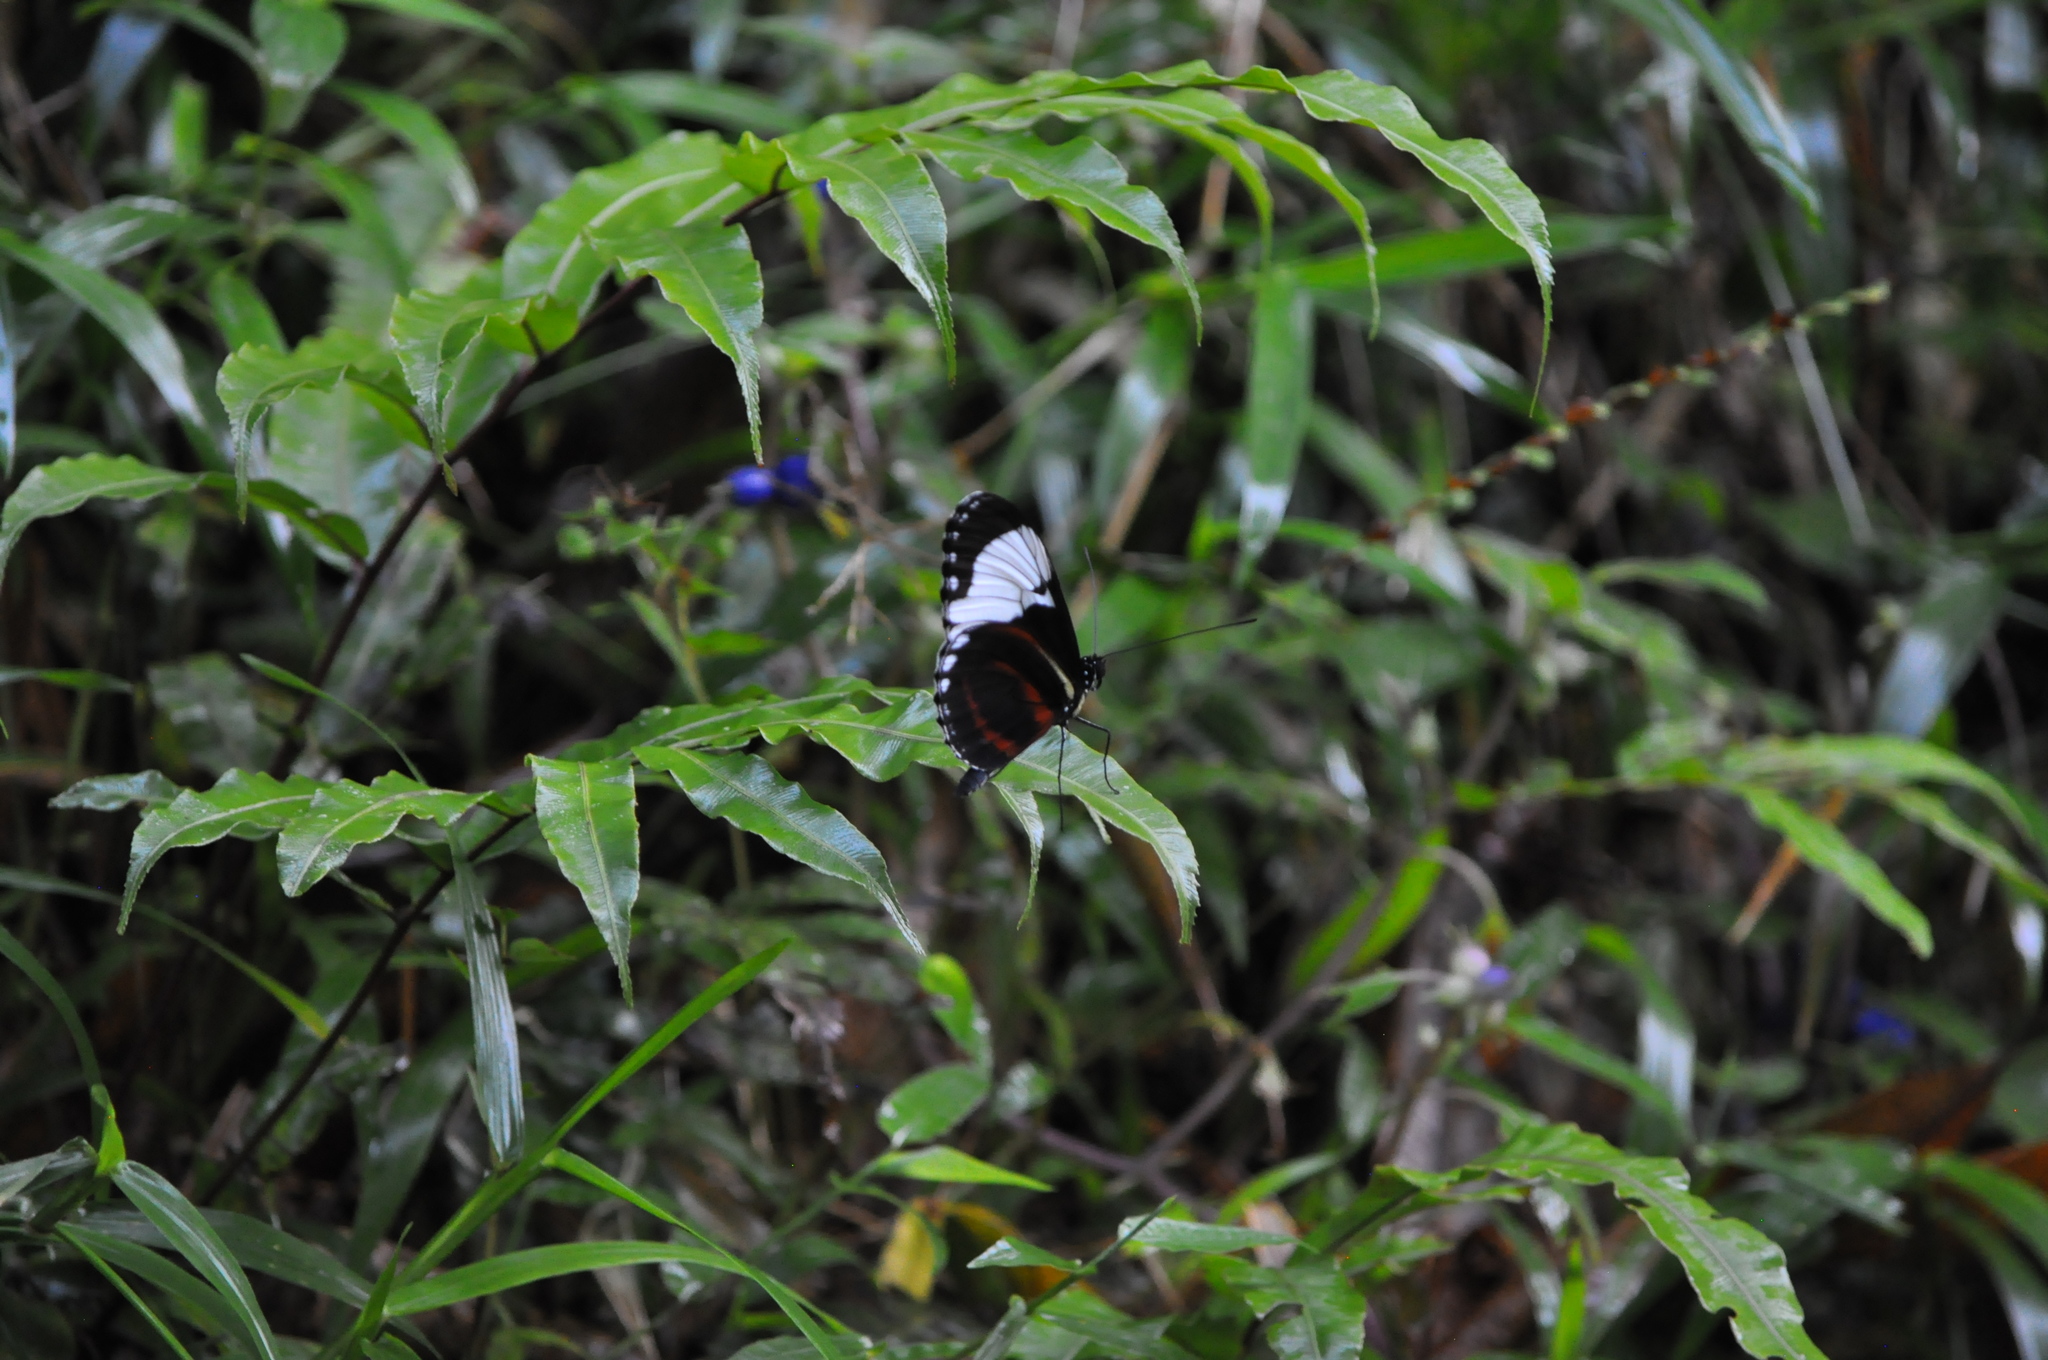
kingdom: Animalia
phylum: Arthropoda
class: Insecta
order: Lepidoptera
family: Nymphalidae
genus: Heliconius
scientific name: Heliconius cydno
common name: Cydno longwing
